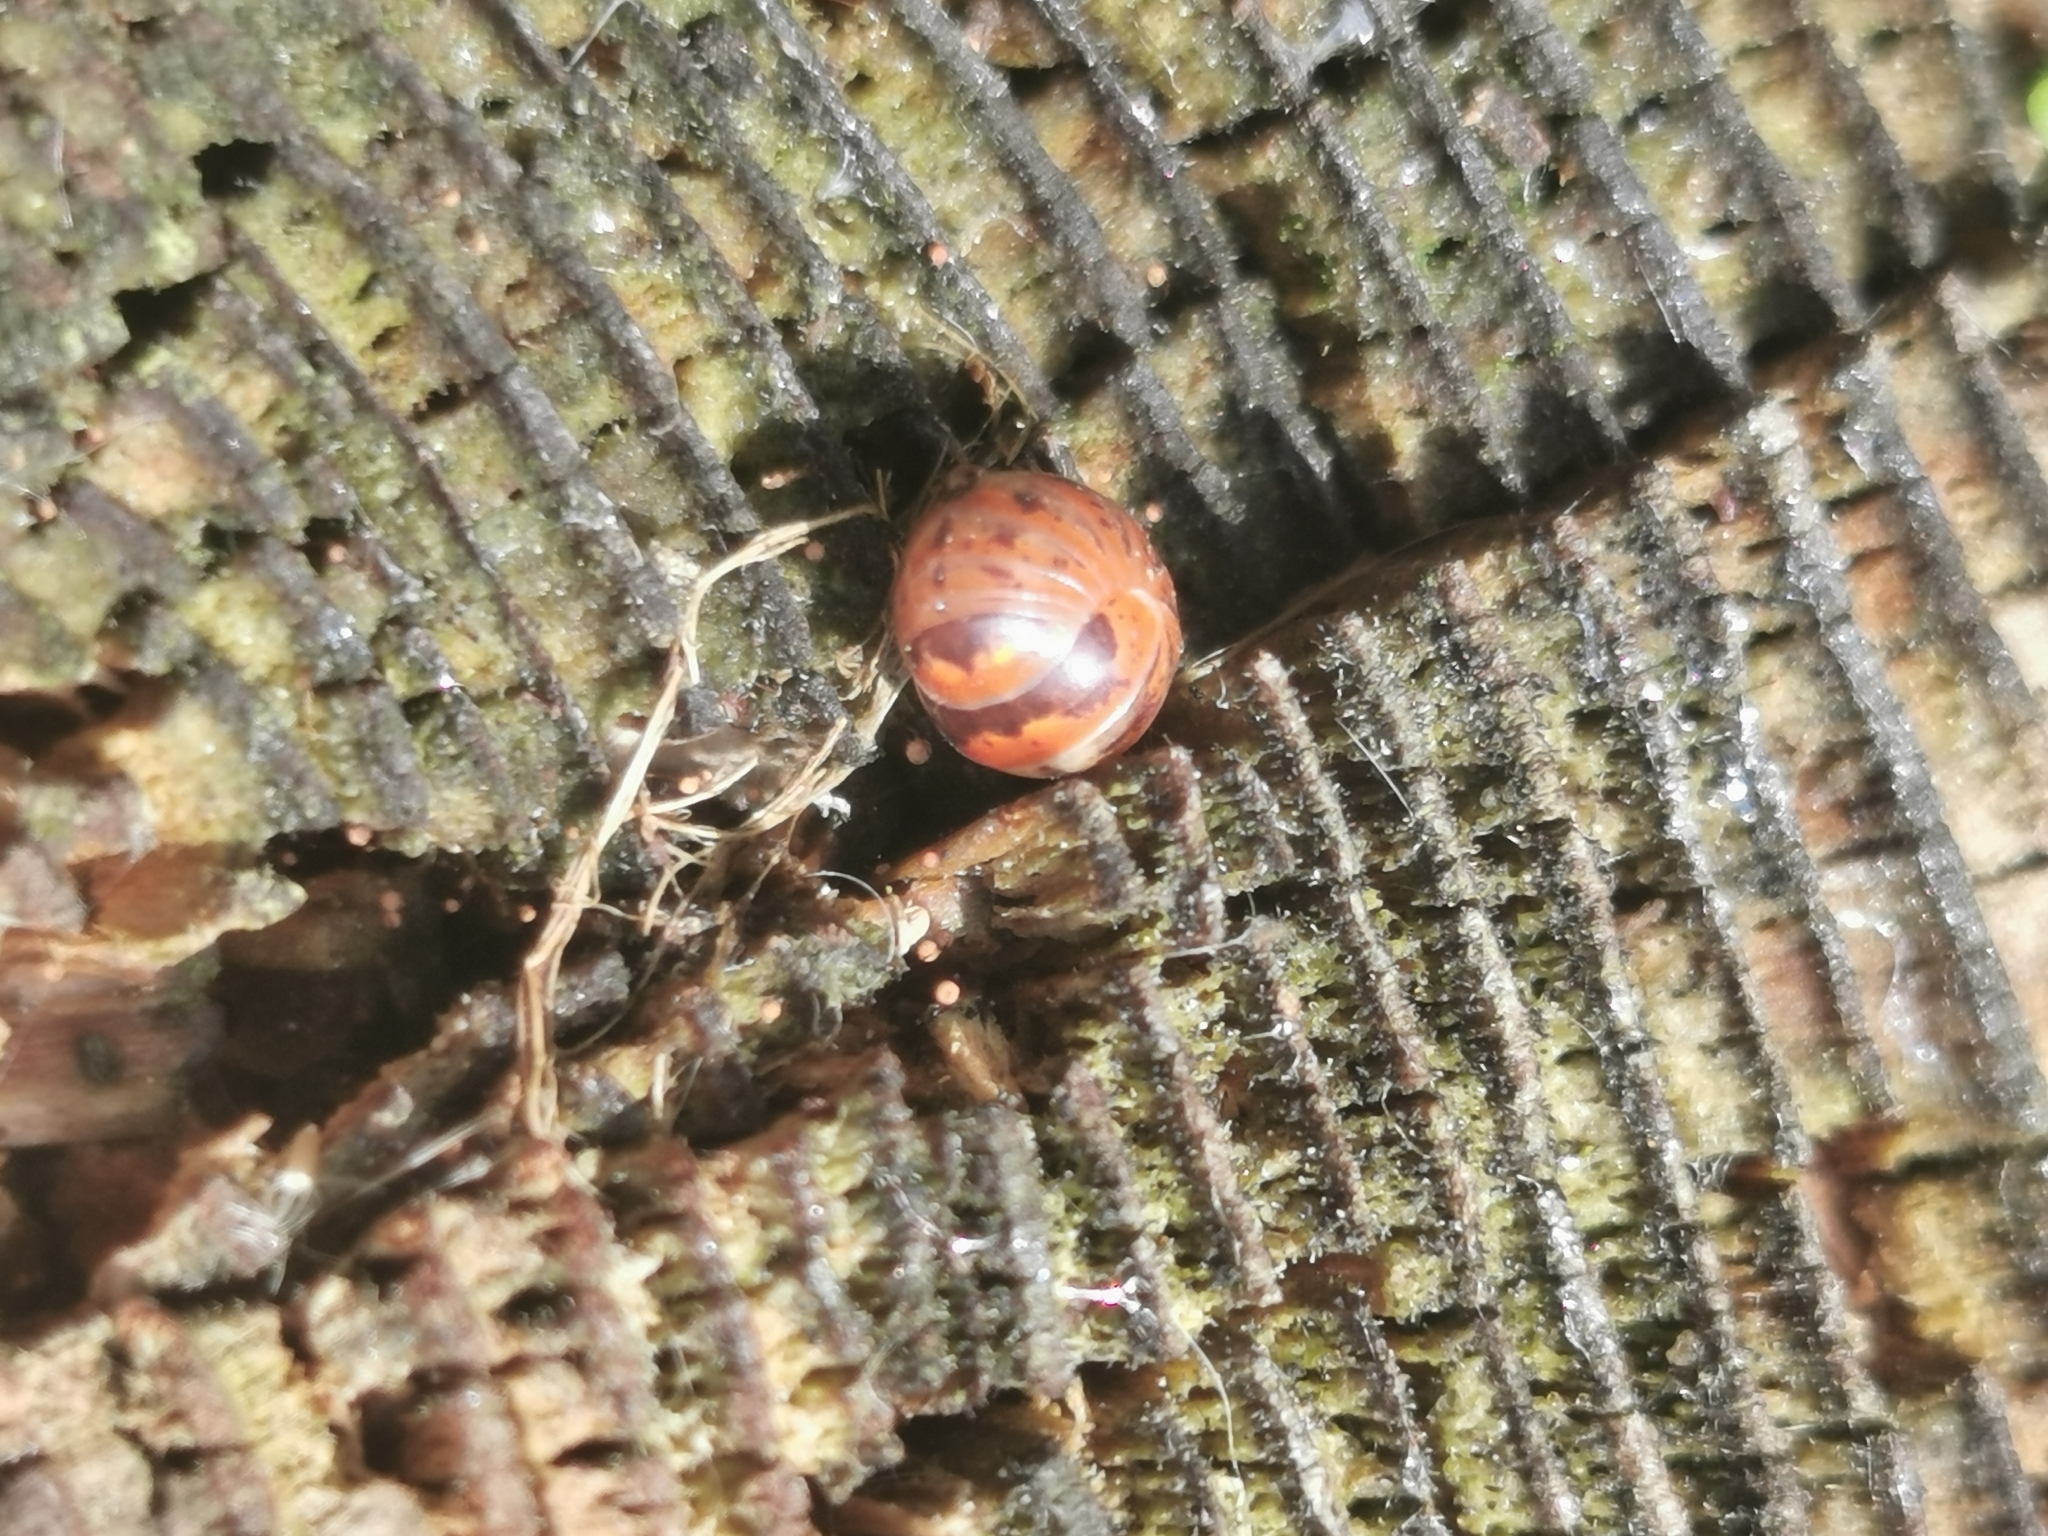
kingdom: Animalia
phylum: Arthropoda
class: Diplopoda
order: Glomerida
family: Glomeridae
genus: Glomeris
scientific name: Glomeris klugii
